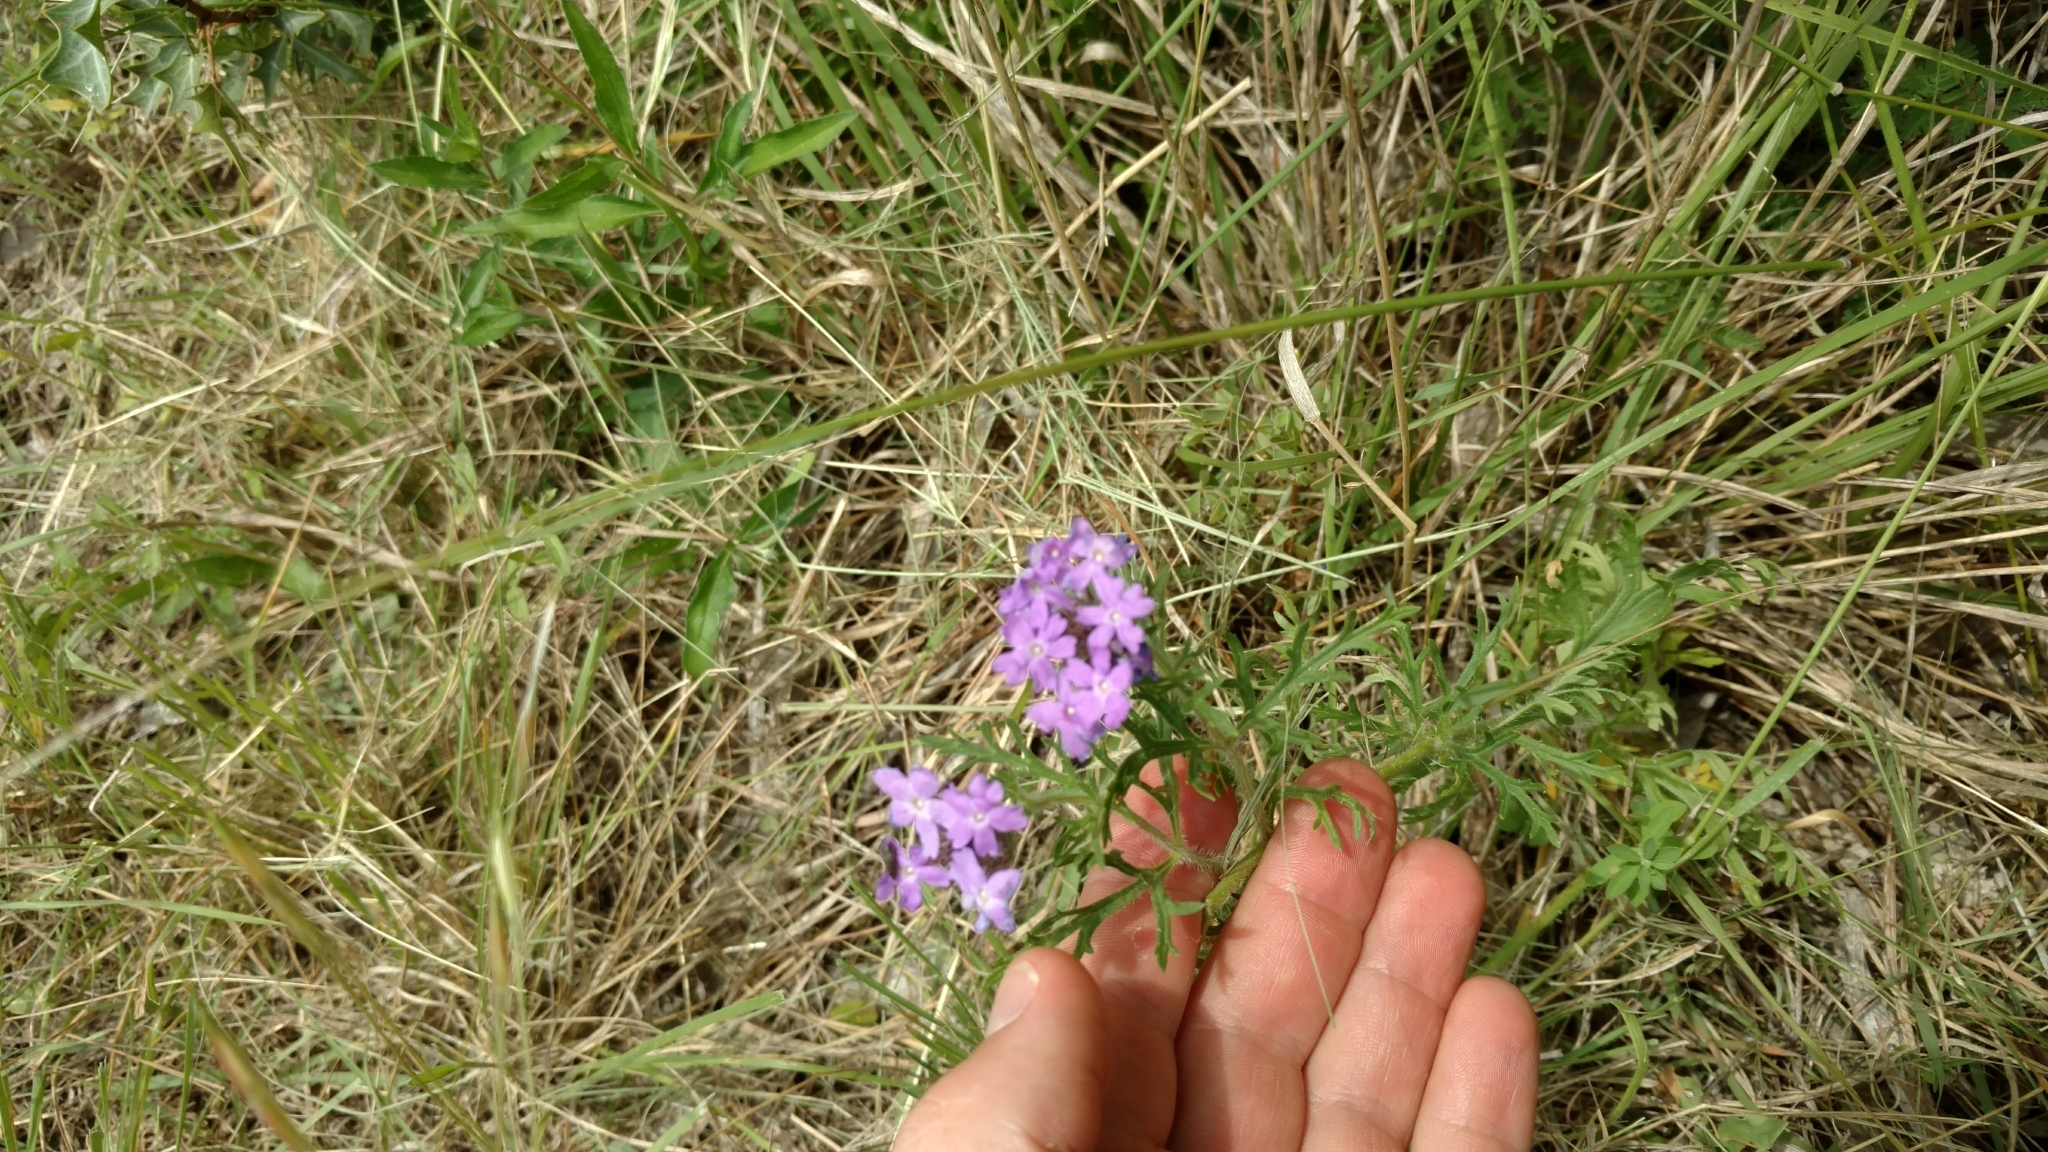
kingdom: Plantae
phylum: Tracheophyta
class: Magnoliopsida
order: Lamiales
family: Verbenaceae
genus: Verbena
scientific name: Verbena bipinnatifida
